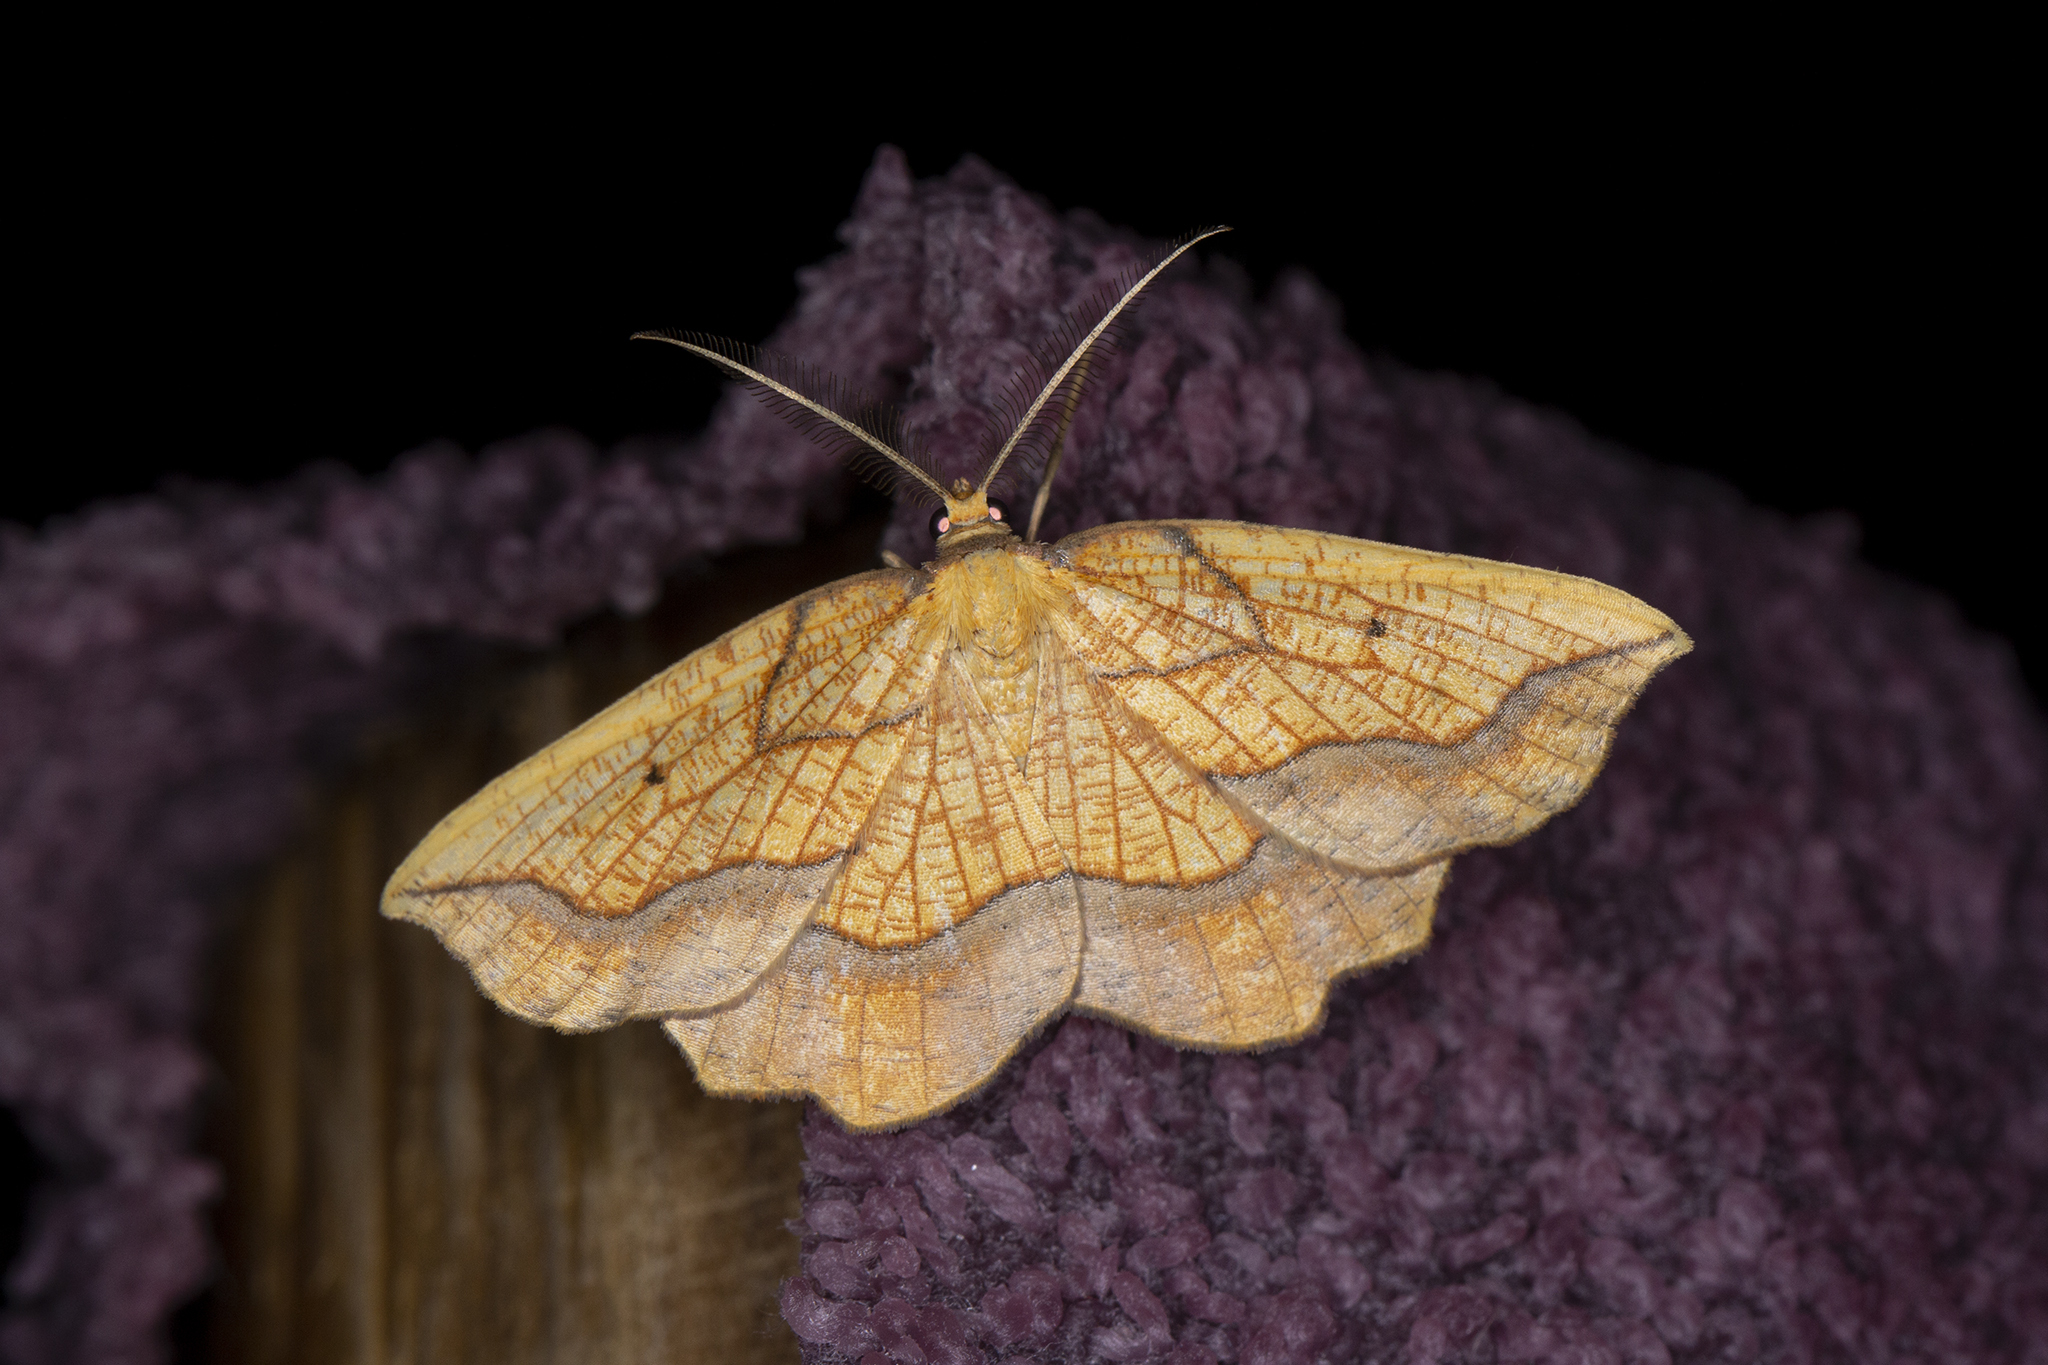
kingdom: Animalia
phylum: Arthropoda
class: Insecta
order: Lepidoptera
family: Geometridae
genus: Epione
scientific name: Epione repandaria
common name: Bordered beauty
